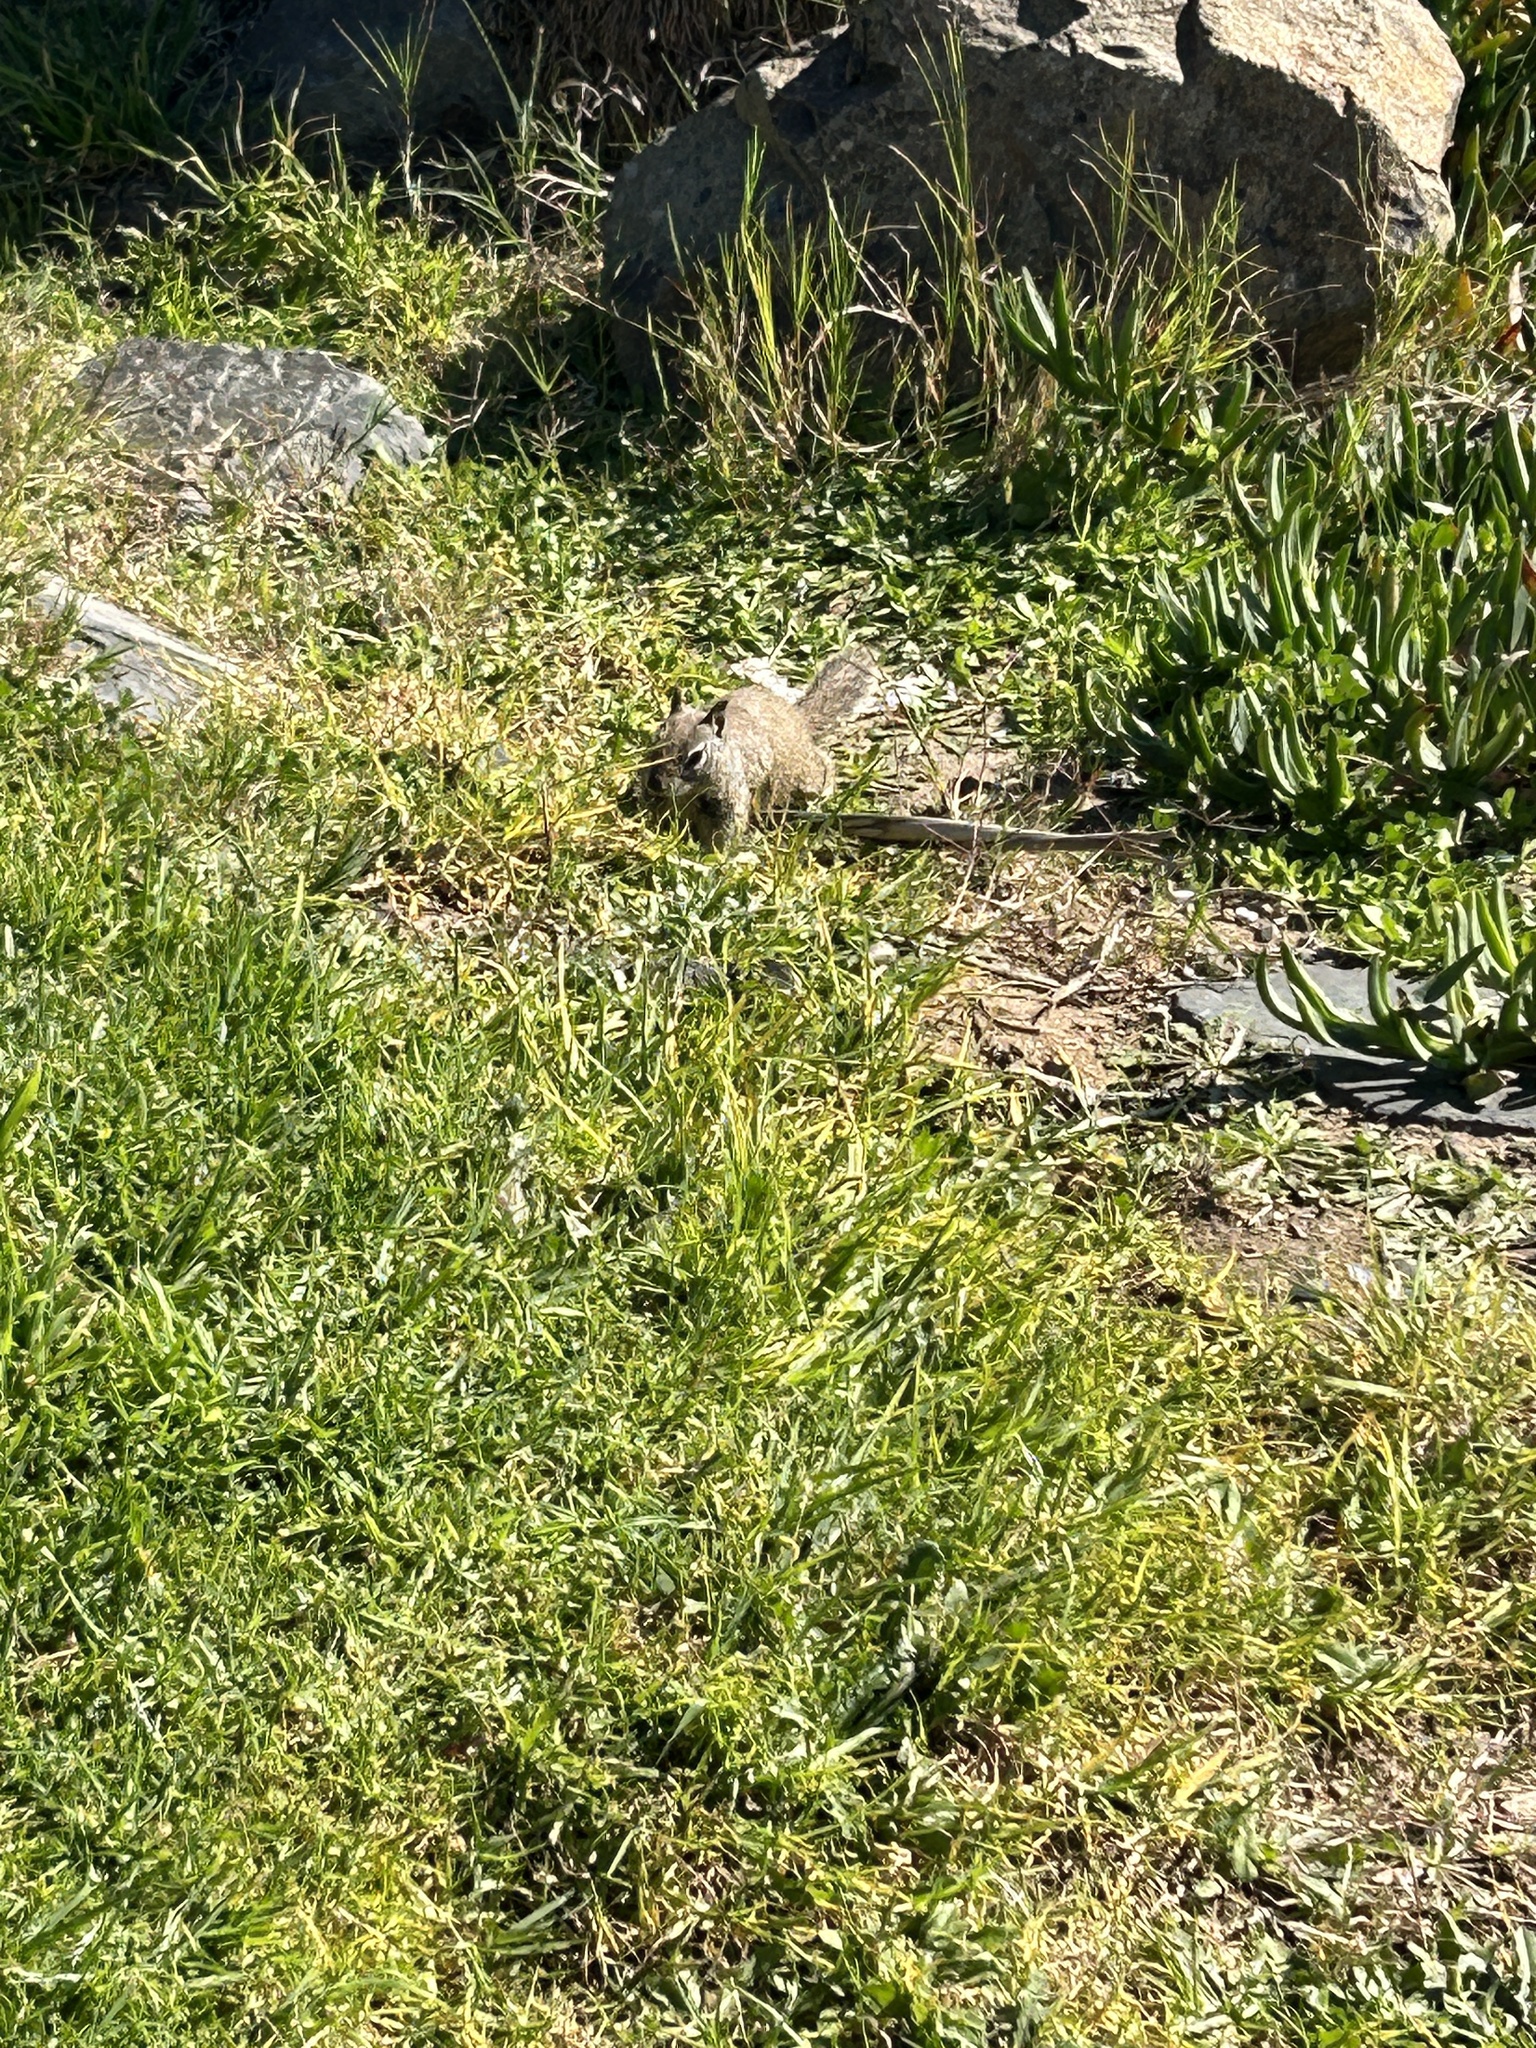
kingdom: Animalia
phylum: Chordata
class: Mammalia
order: Rodentia
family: Sciuridae
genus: Otospermophilus
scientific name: Otospermophilus beecheyi
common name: California ground squirrel
